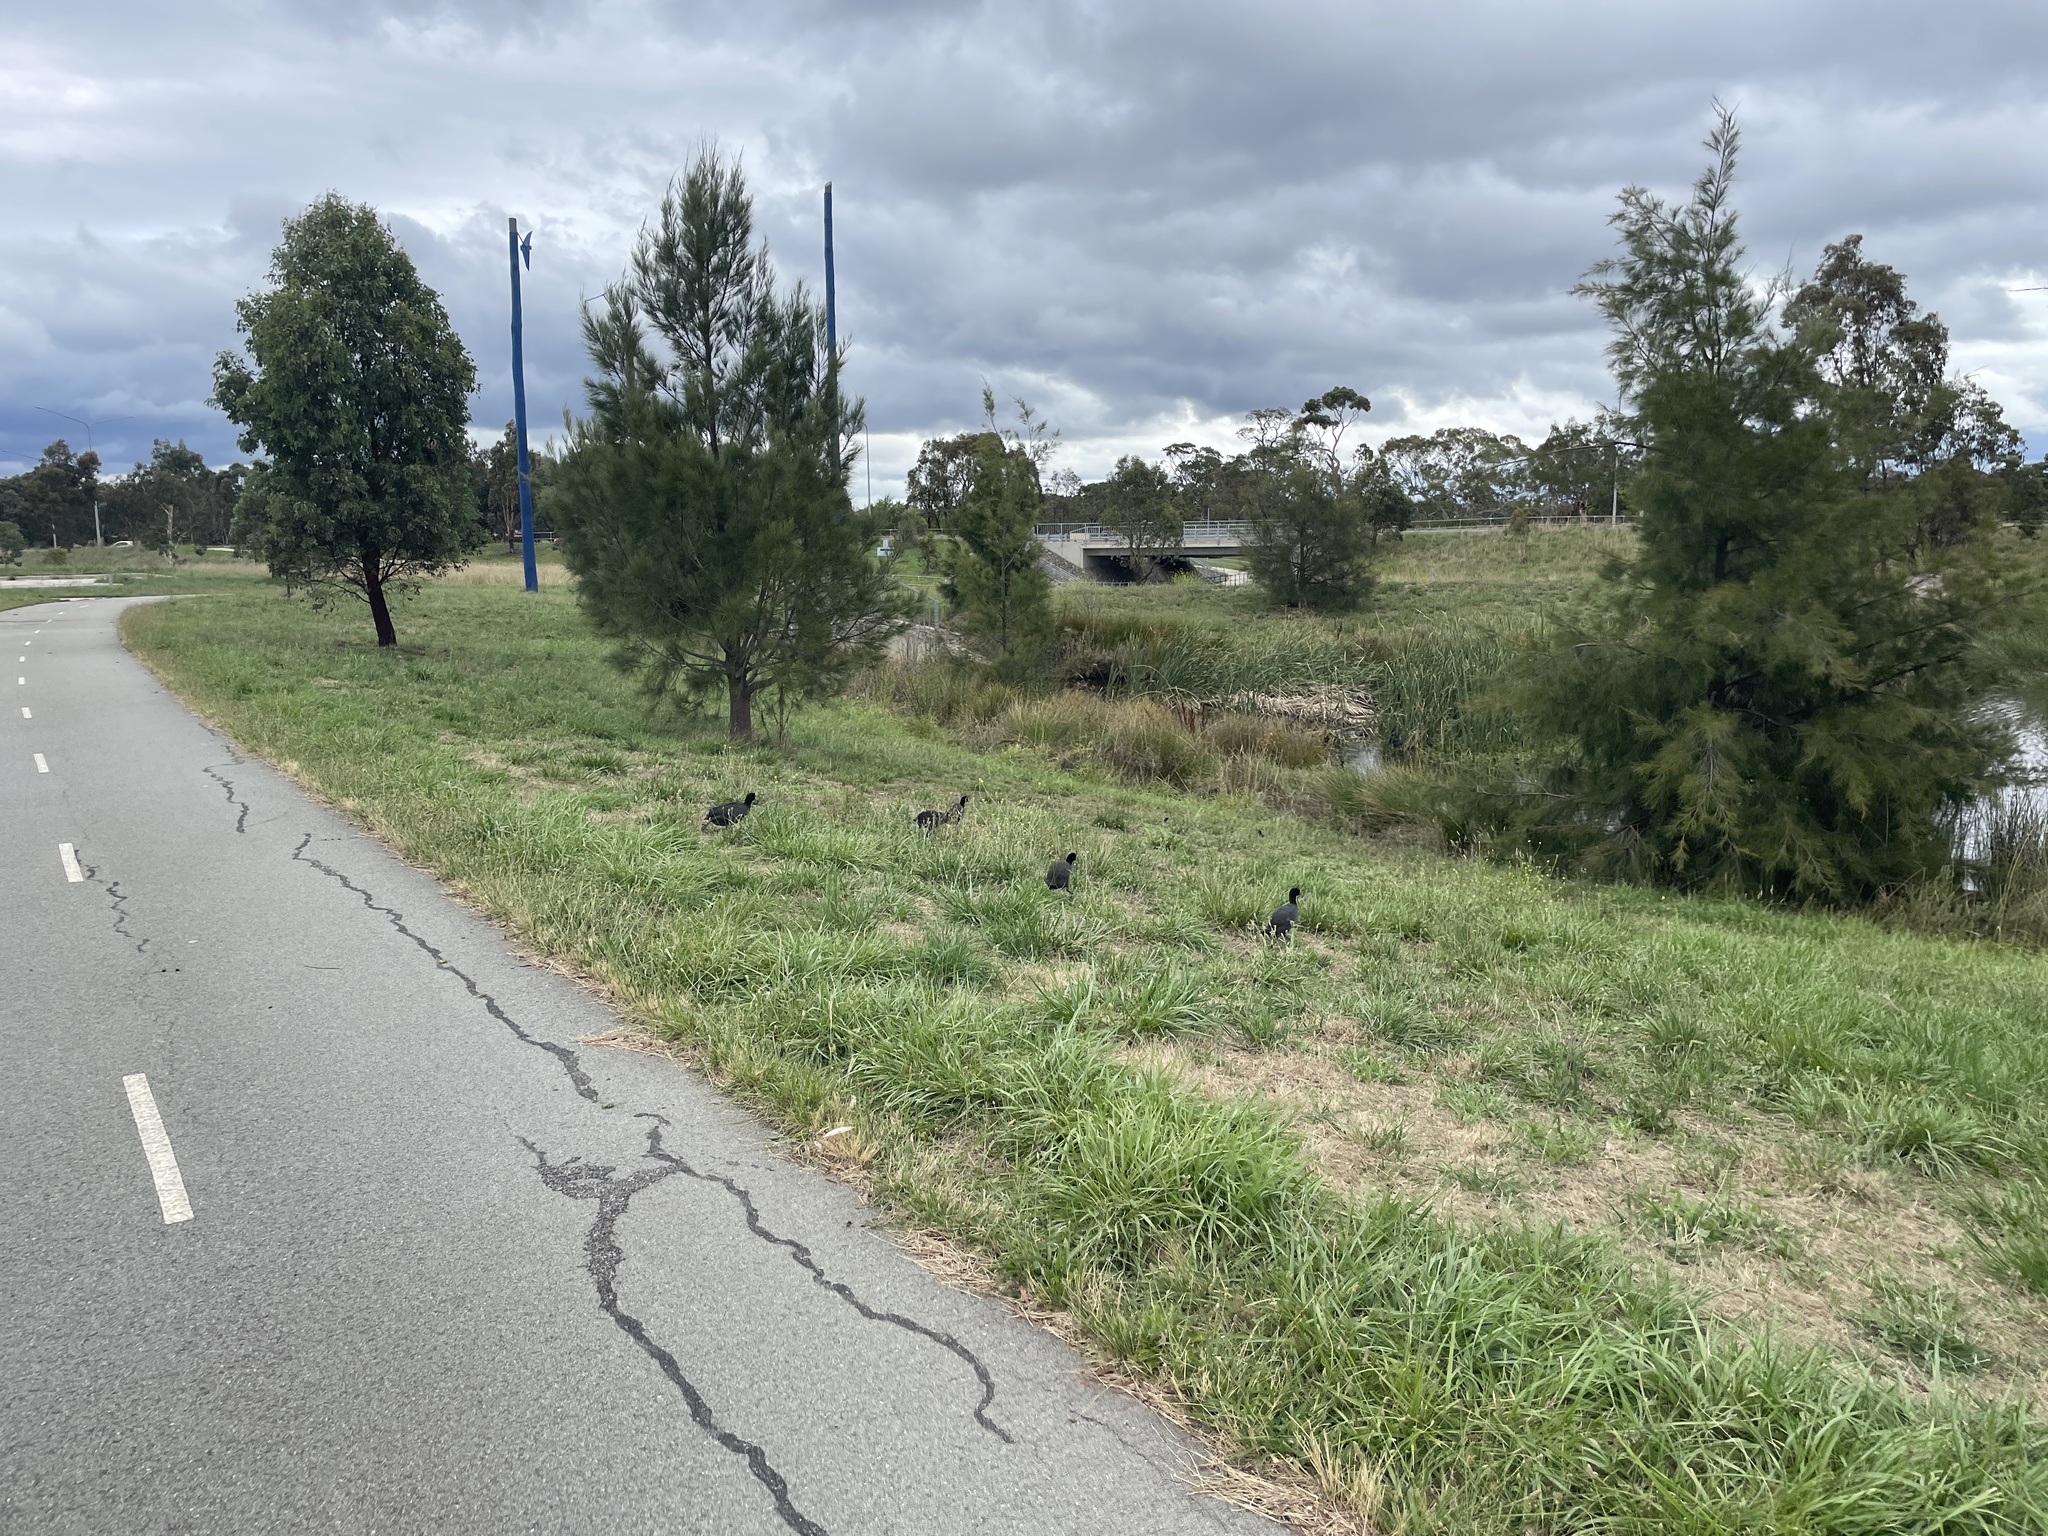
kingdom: Animalia
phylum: Chordata
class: Aves
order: Gruiformes
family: Rallidae
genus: Fulica
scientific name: Fulica atra
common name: Eurasian coot
